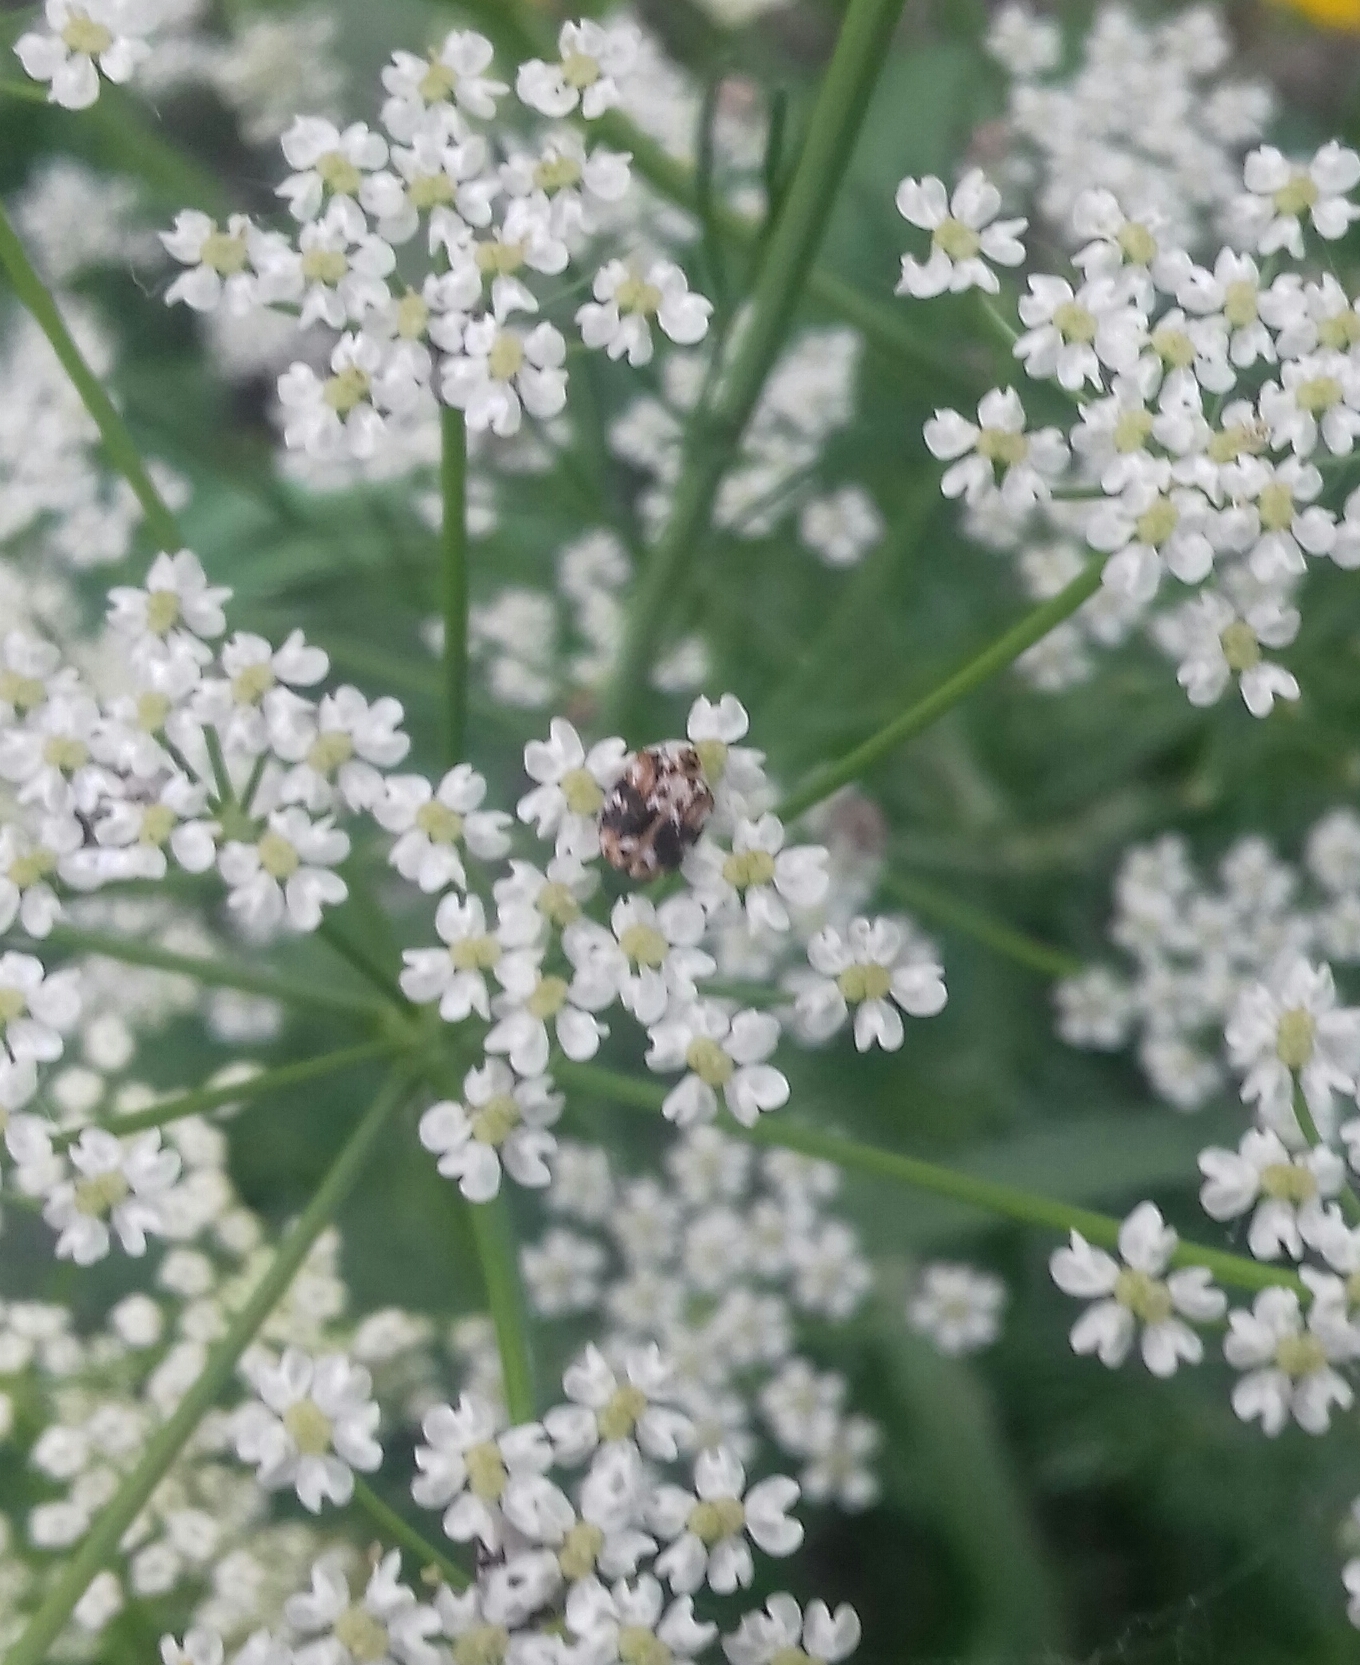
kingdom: Animalia
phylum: Arthropoda
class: Insecta
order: Coleoptera
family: Dermestidae
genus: Anthrenus
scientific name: Anthrenus picturatus
